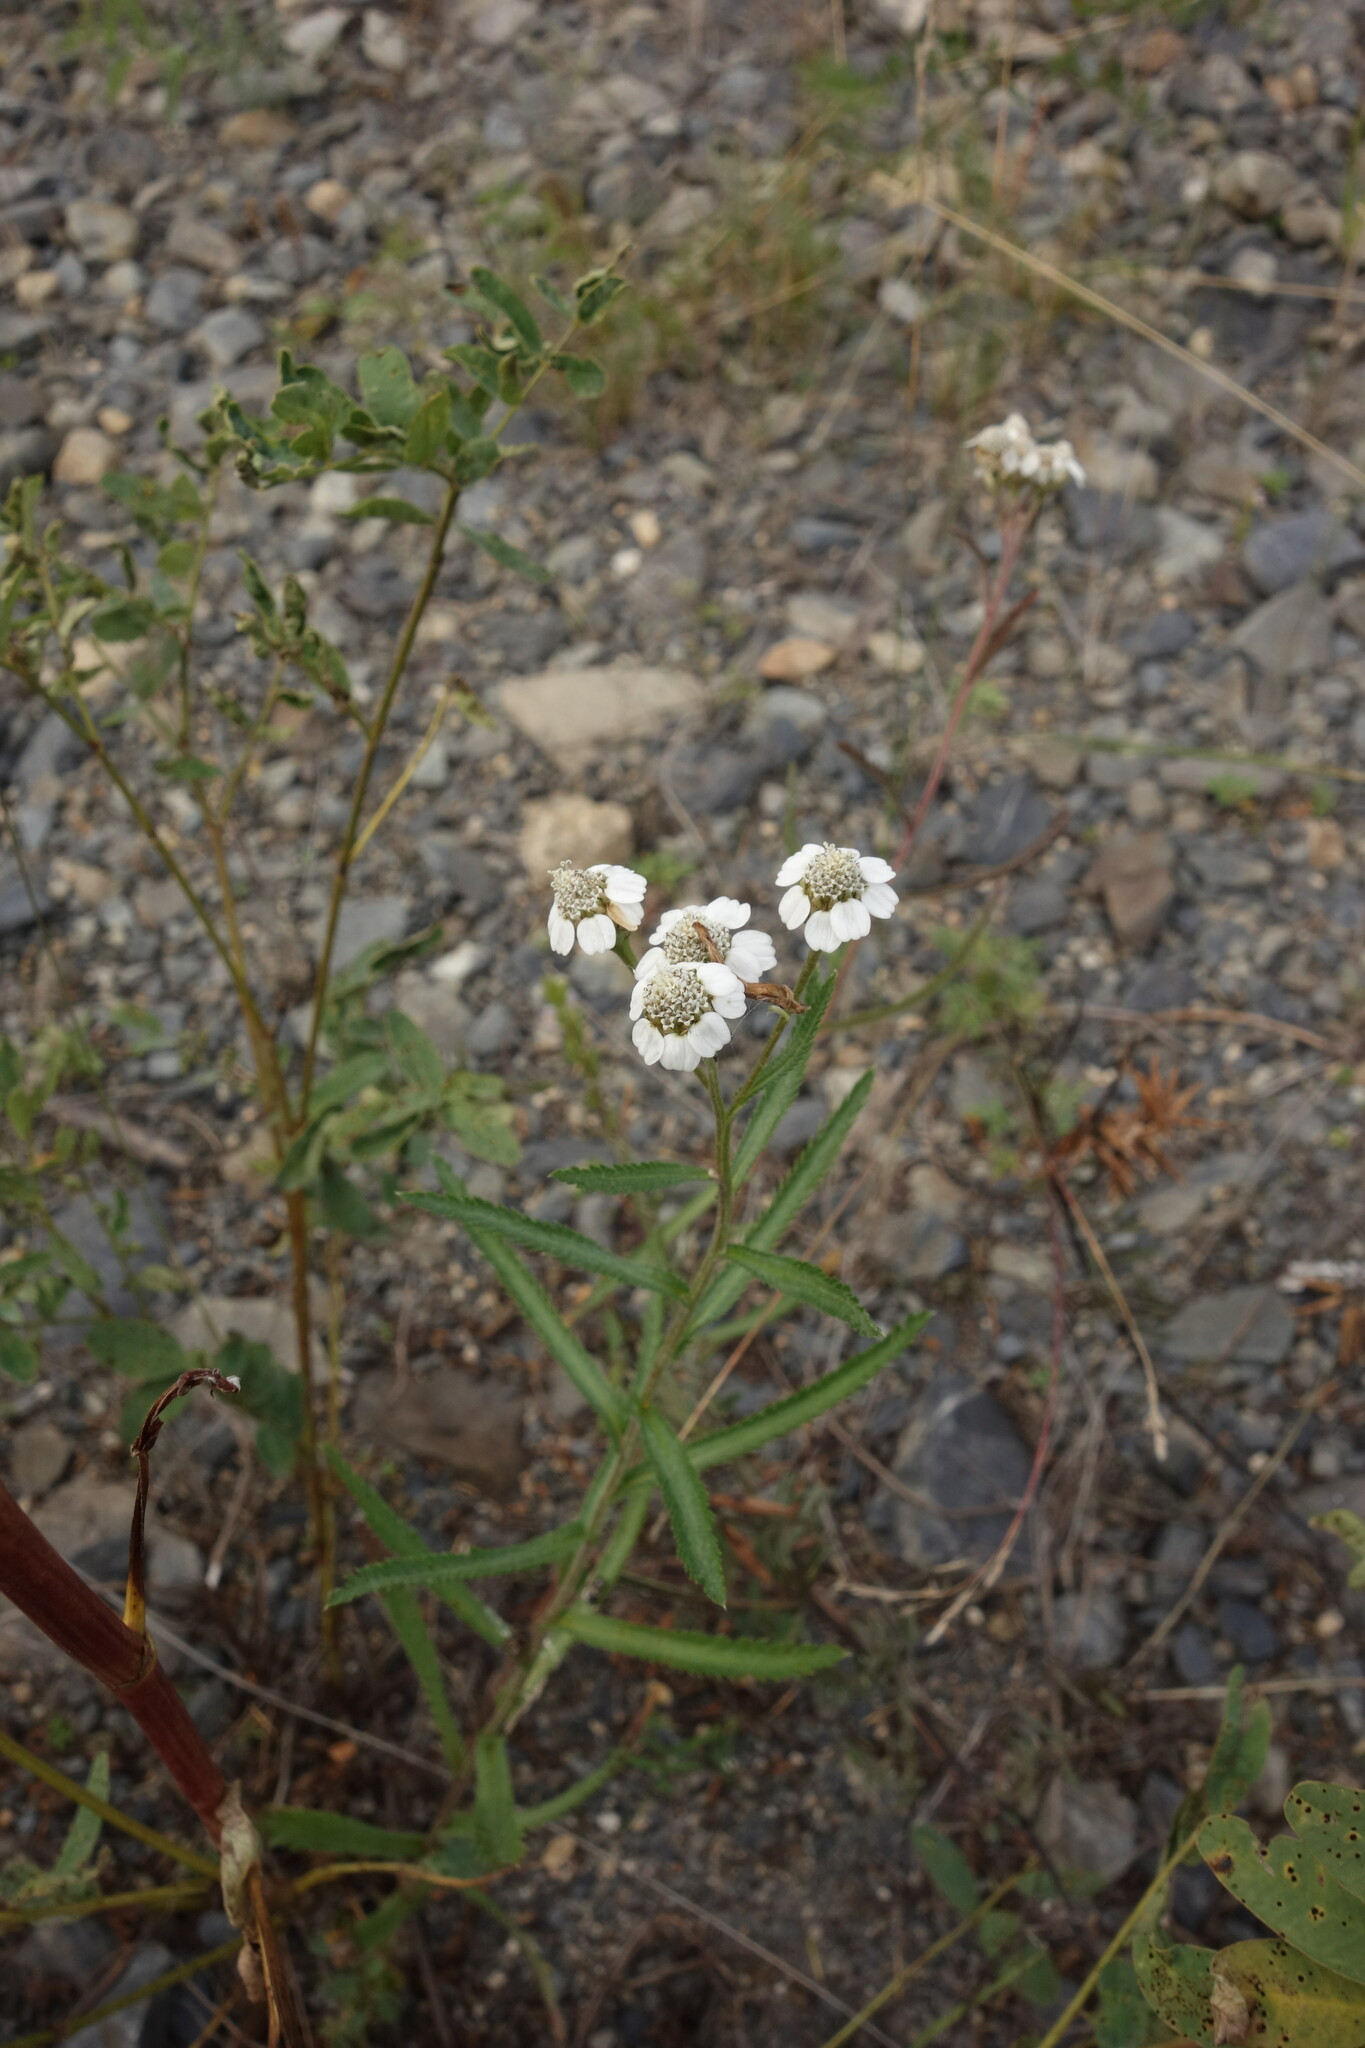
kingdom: Plantae
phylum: Tracheophyta
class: Magnoliopsida
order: Asterales
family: Asteraceae
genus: Achillea
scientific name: Achillea alpina
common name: Siberian yarrow
